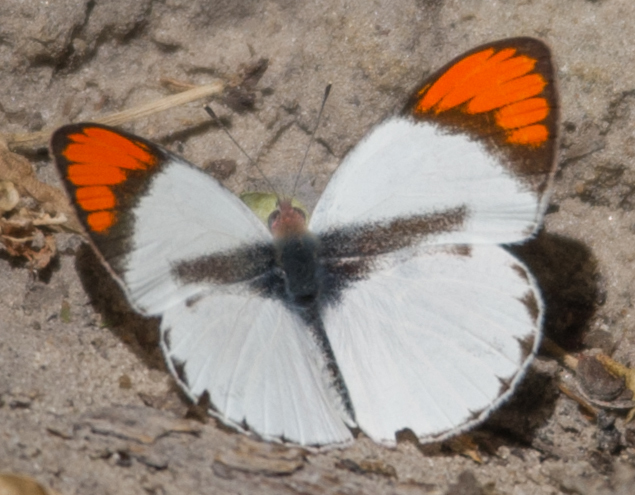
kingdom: Animalia
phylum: Arthropoda
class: Insecta
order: Lepidoptera
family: Pieridae
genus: Colotis
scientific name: Colotis euippe
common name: Round-winged orange tip
